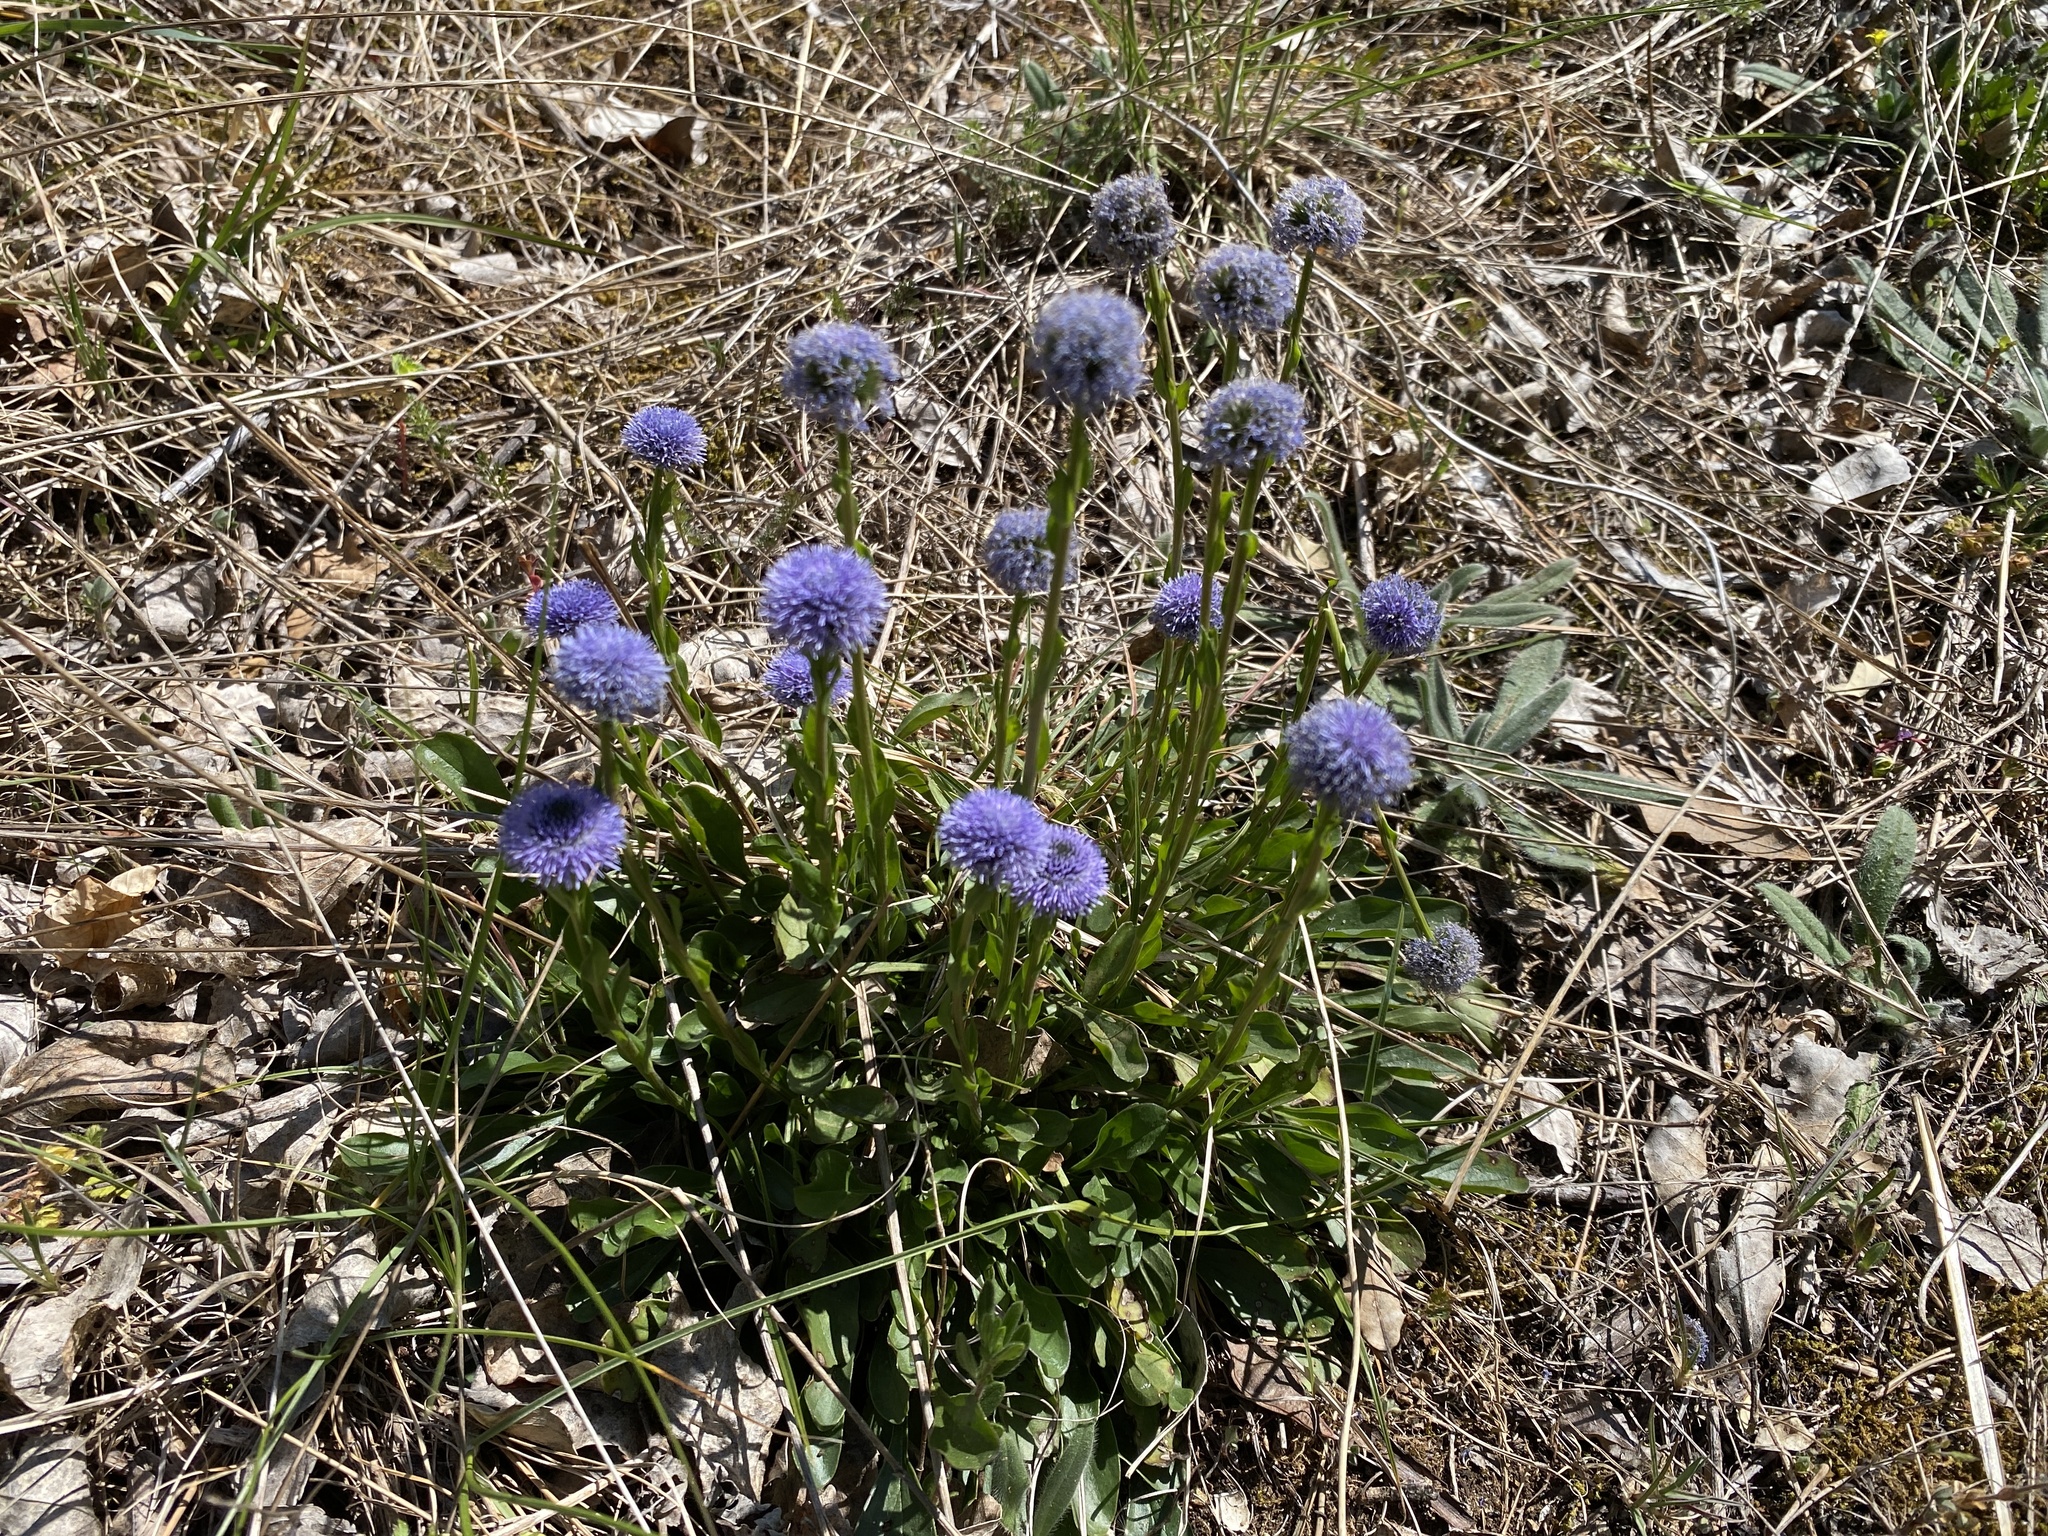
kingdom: Plantae
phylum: Tracheophyta
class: Magnoliopsida
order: Lamiales
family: Plantaginaceae
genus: Globularia
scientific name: Globularia bisnagarica
